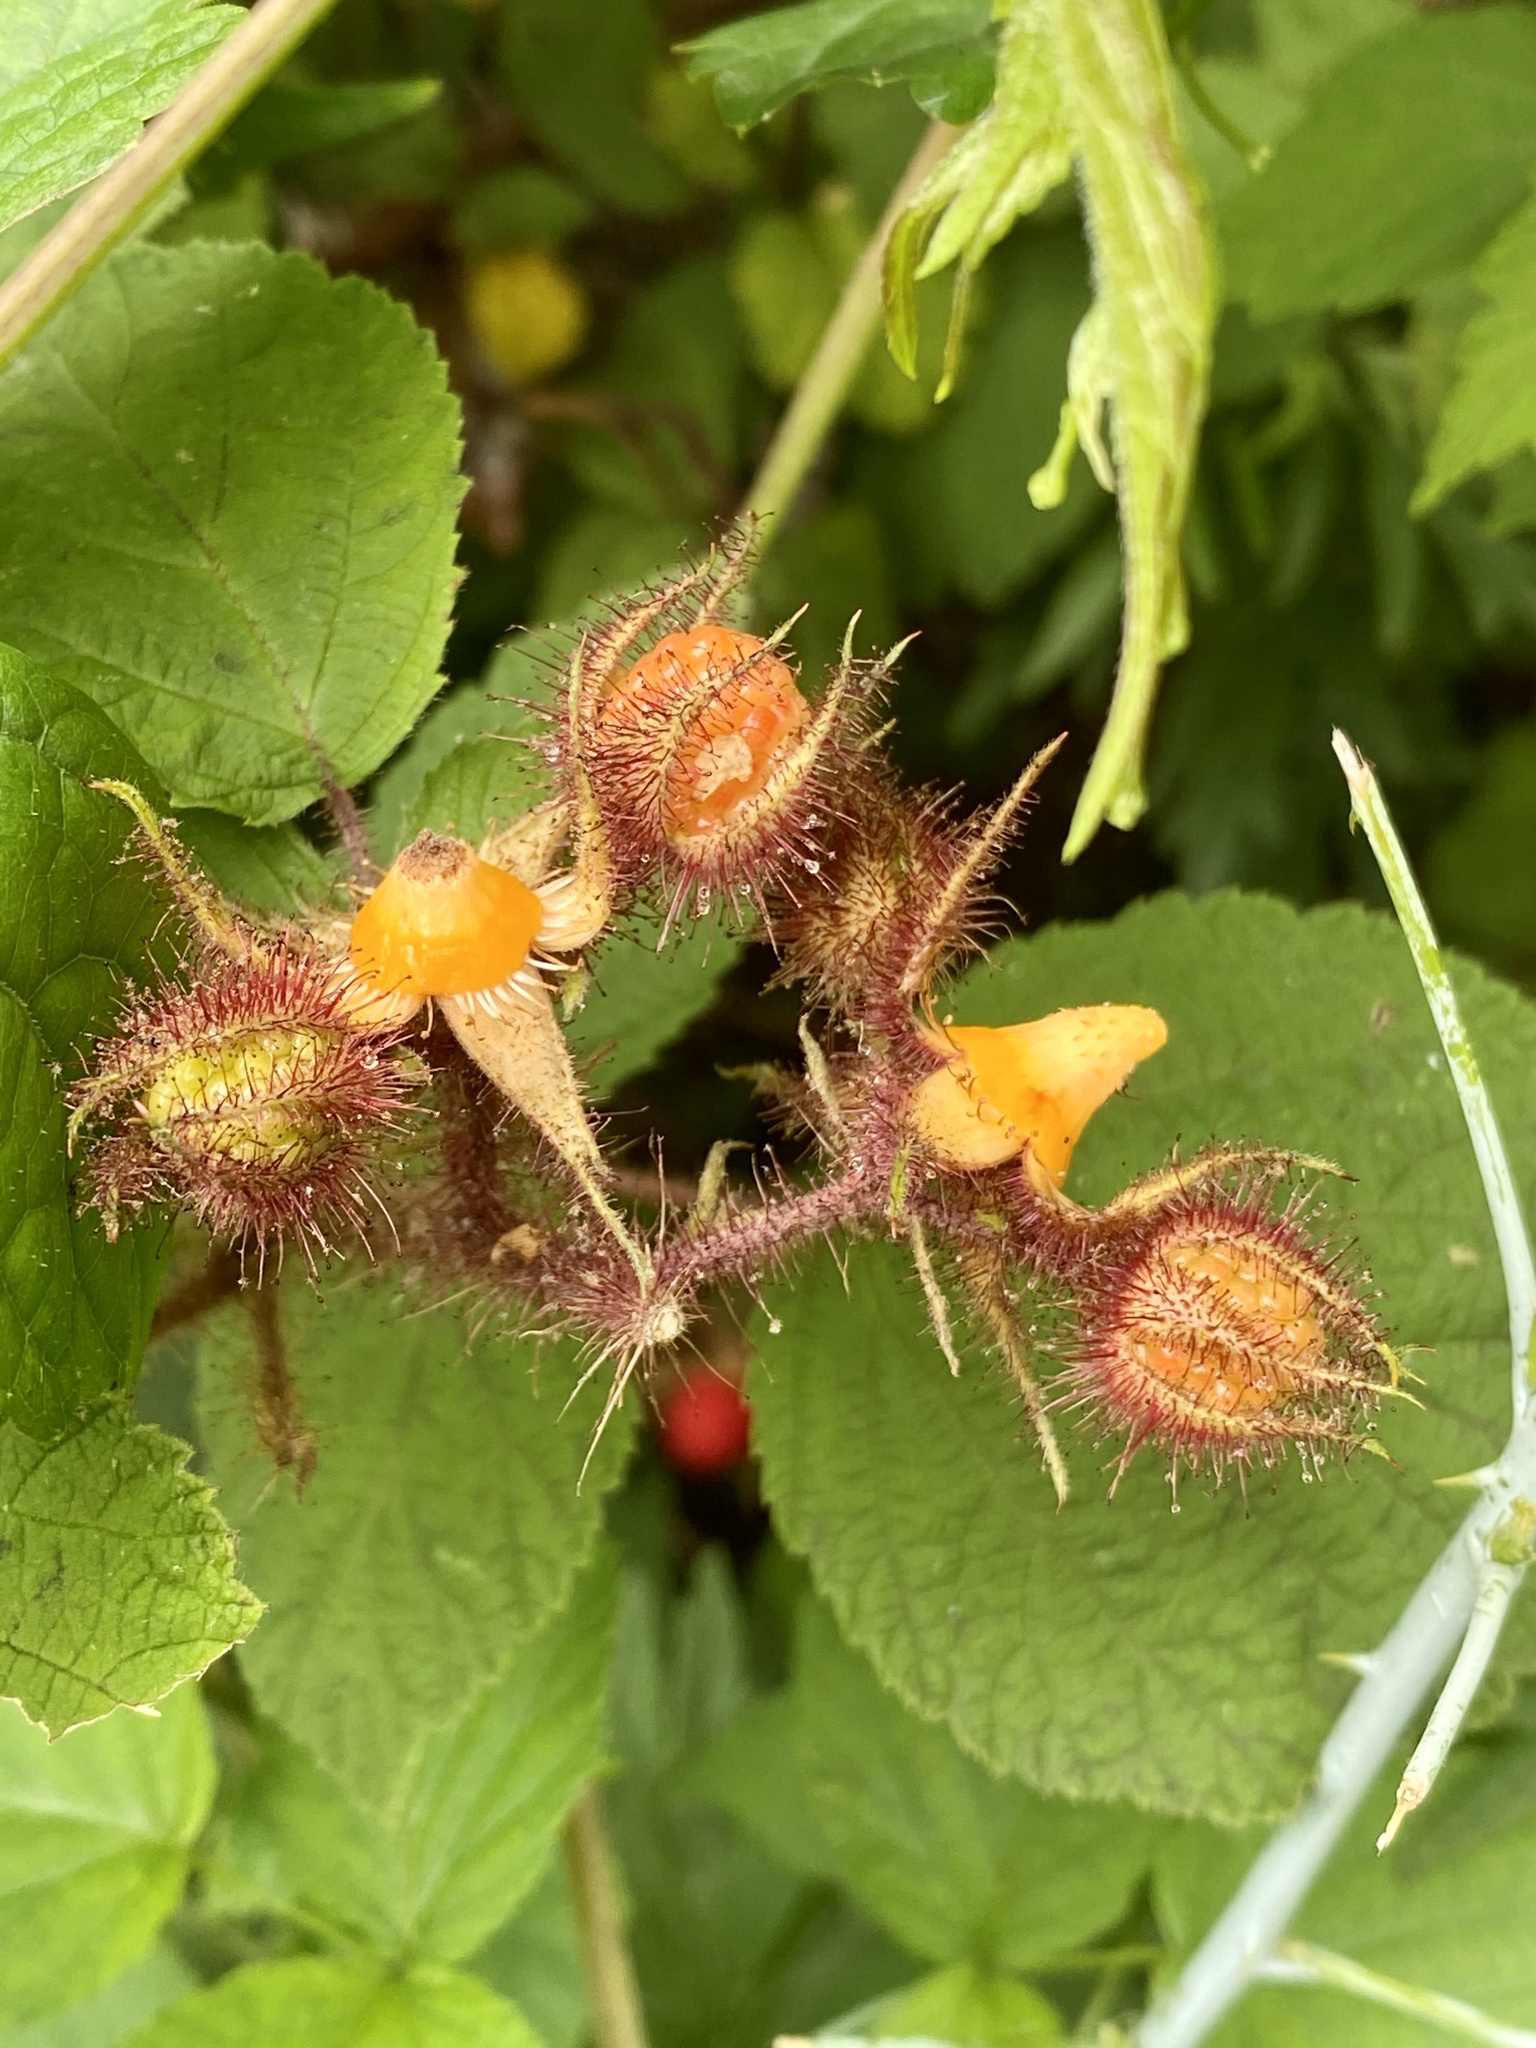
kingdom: Plantae
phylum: Tracheophyta
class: Magnoliopsida
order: Rosales
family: Rosaceae
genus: Rubus
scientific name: Rubus phoenicolasius
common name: Japanese wineberry
